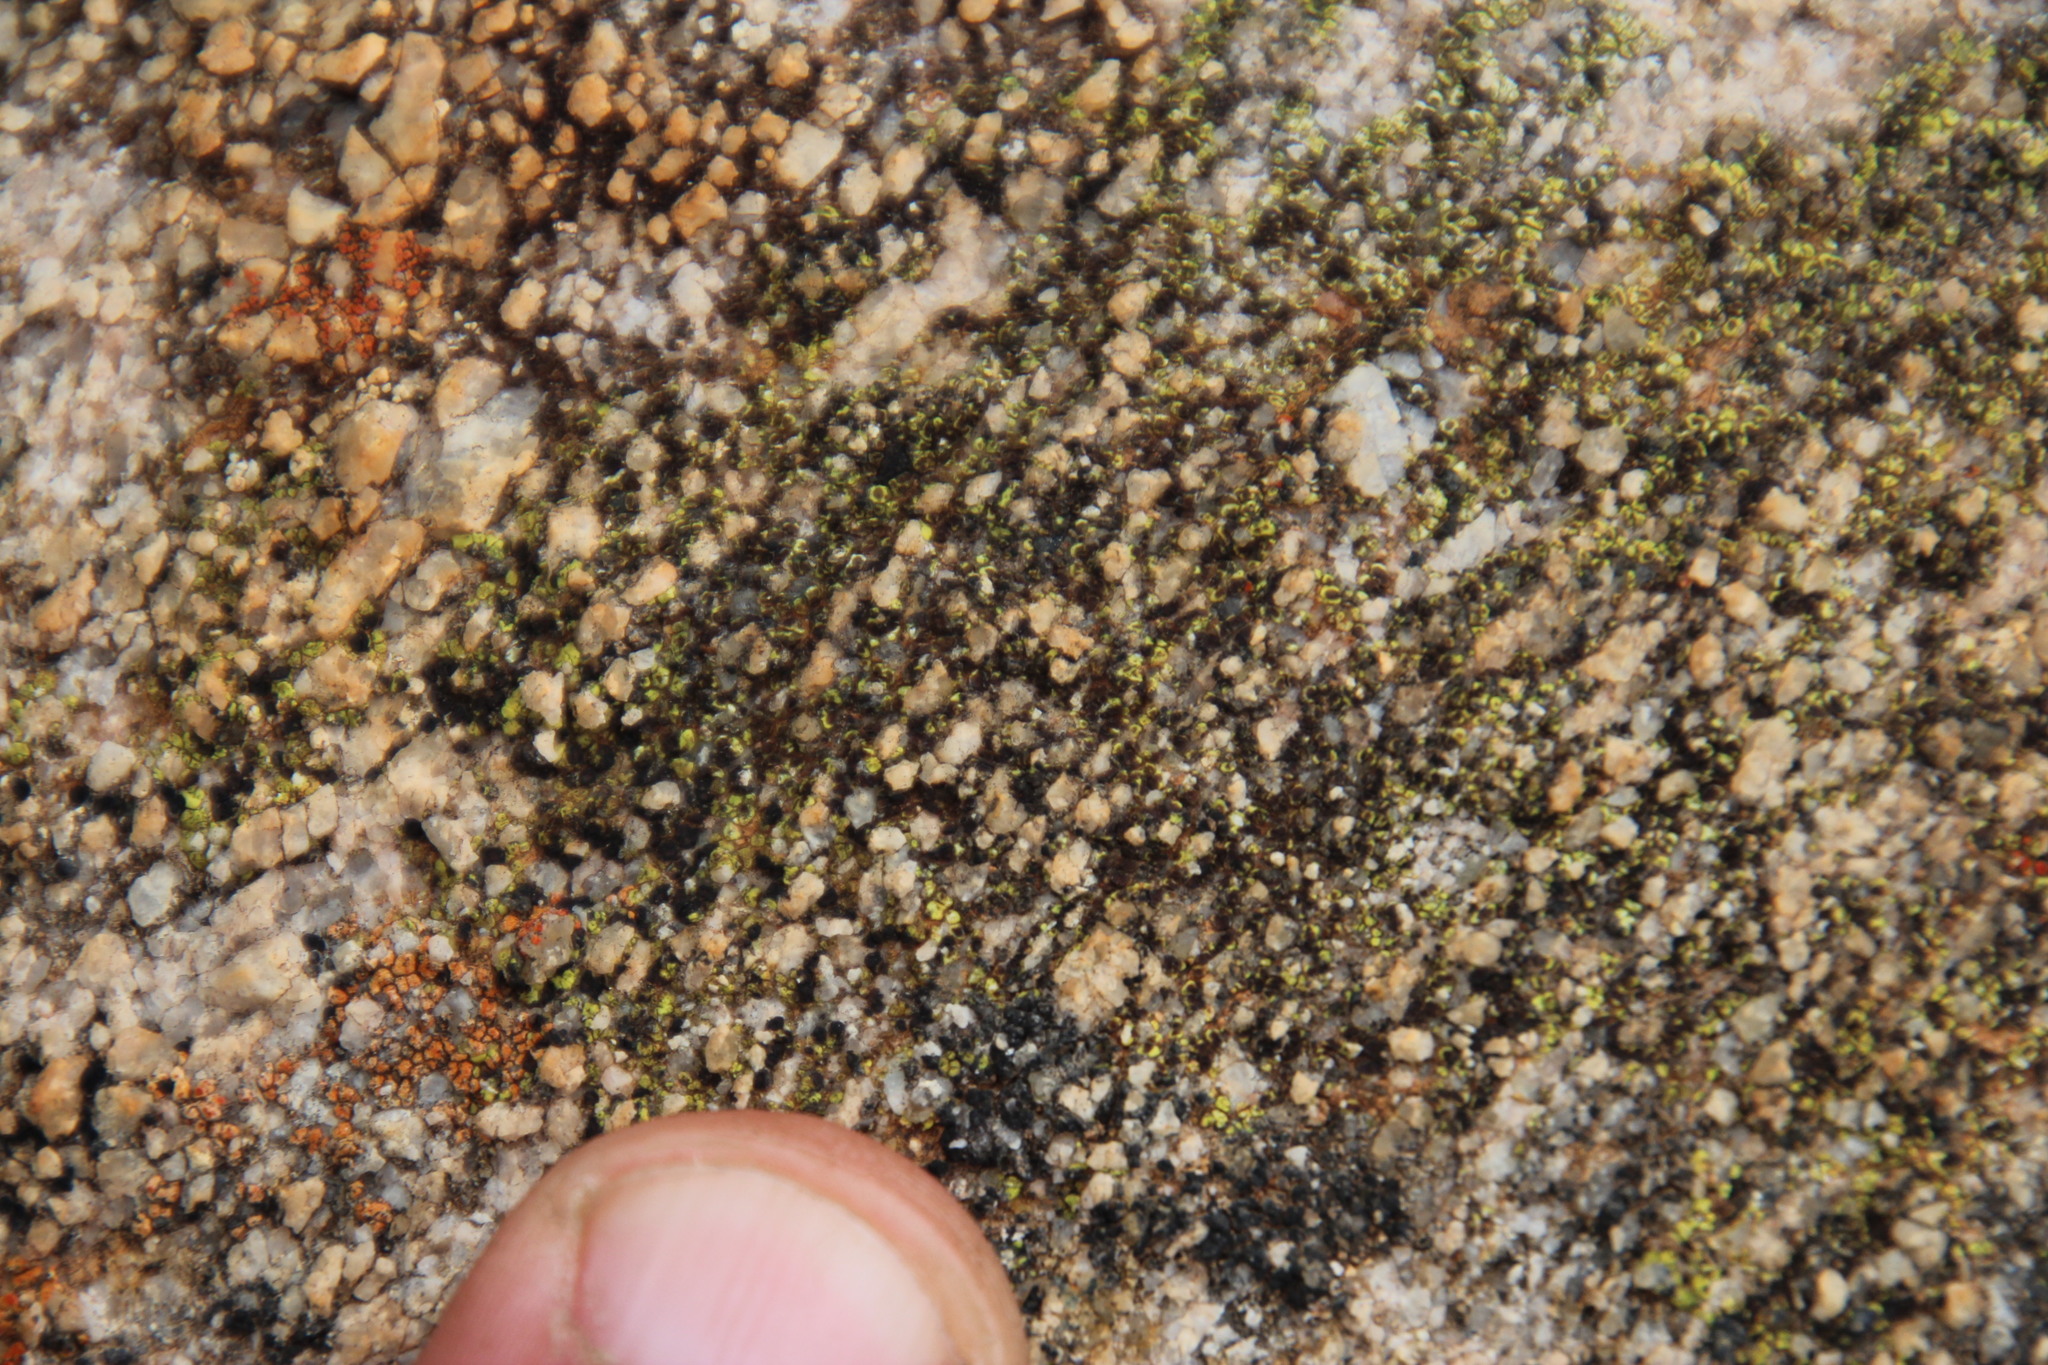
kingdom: Fungi
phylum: Ascomycota
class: Lecanoromycetes
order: Rhizocarpales
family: Rhizocarpaceae
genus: Rhizocarpon
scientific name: Rhizocarpon lecanorinum
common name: Crescent map lichen
